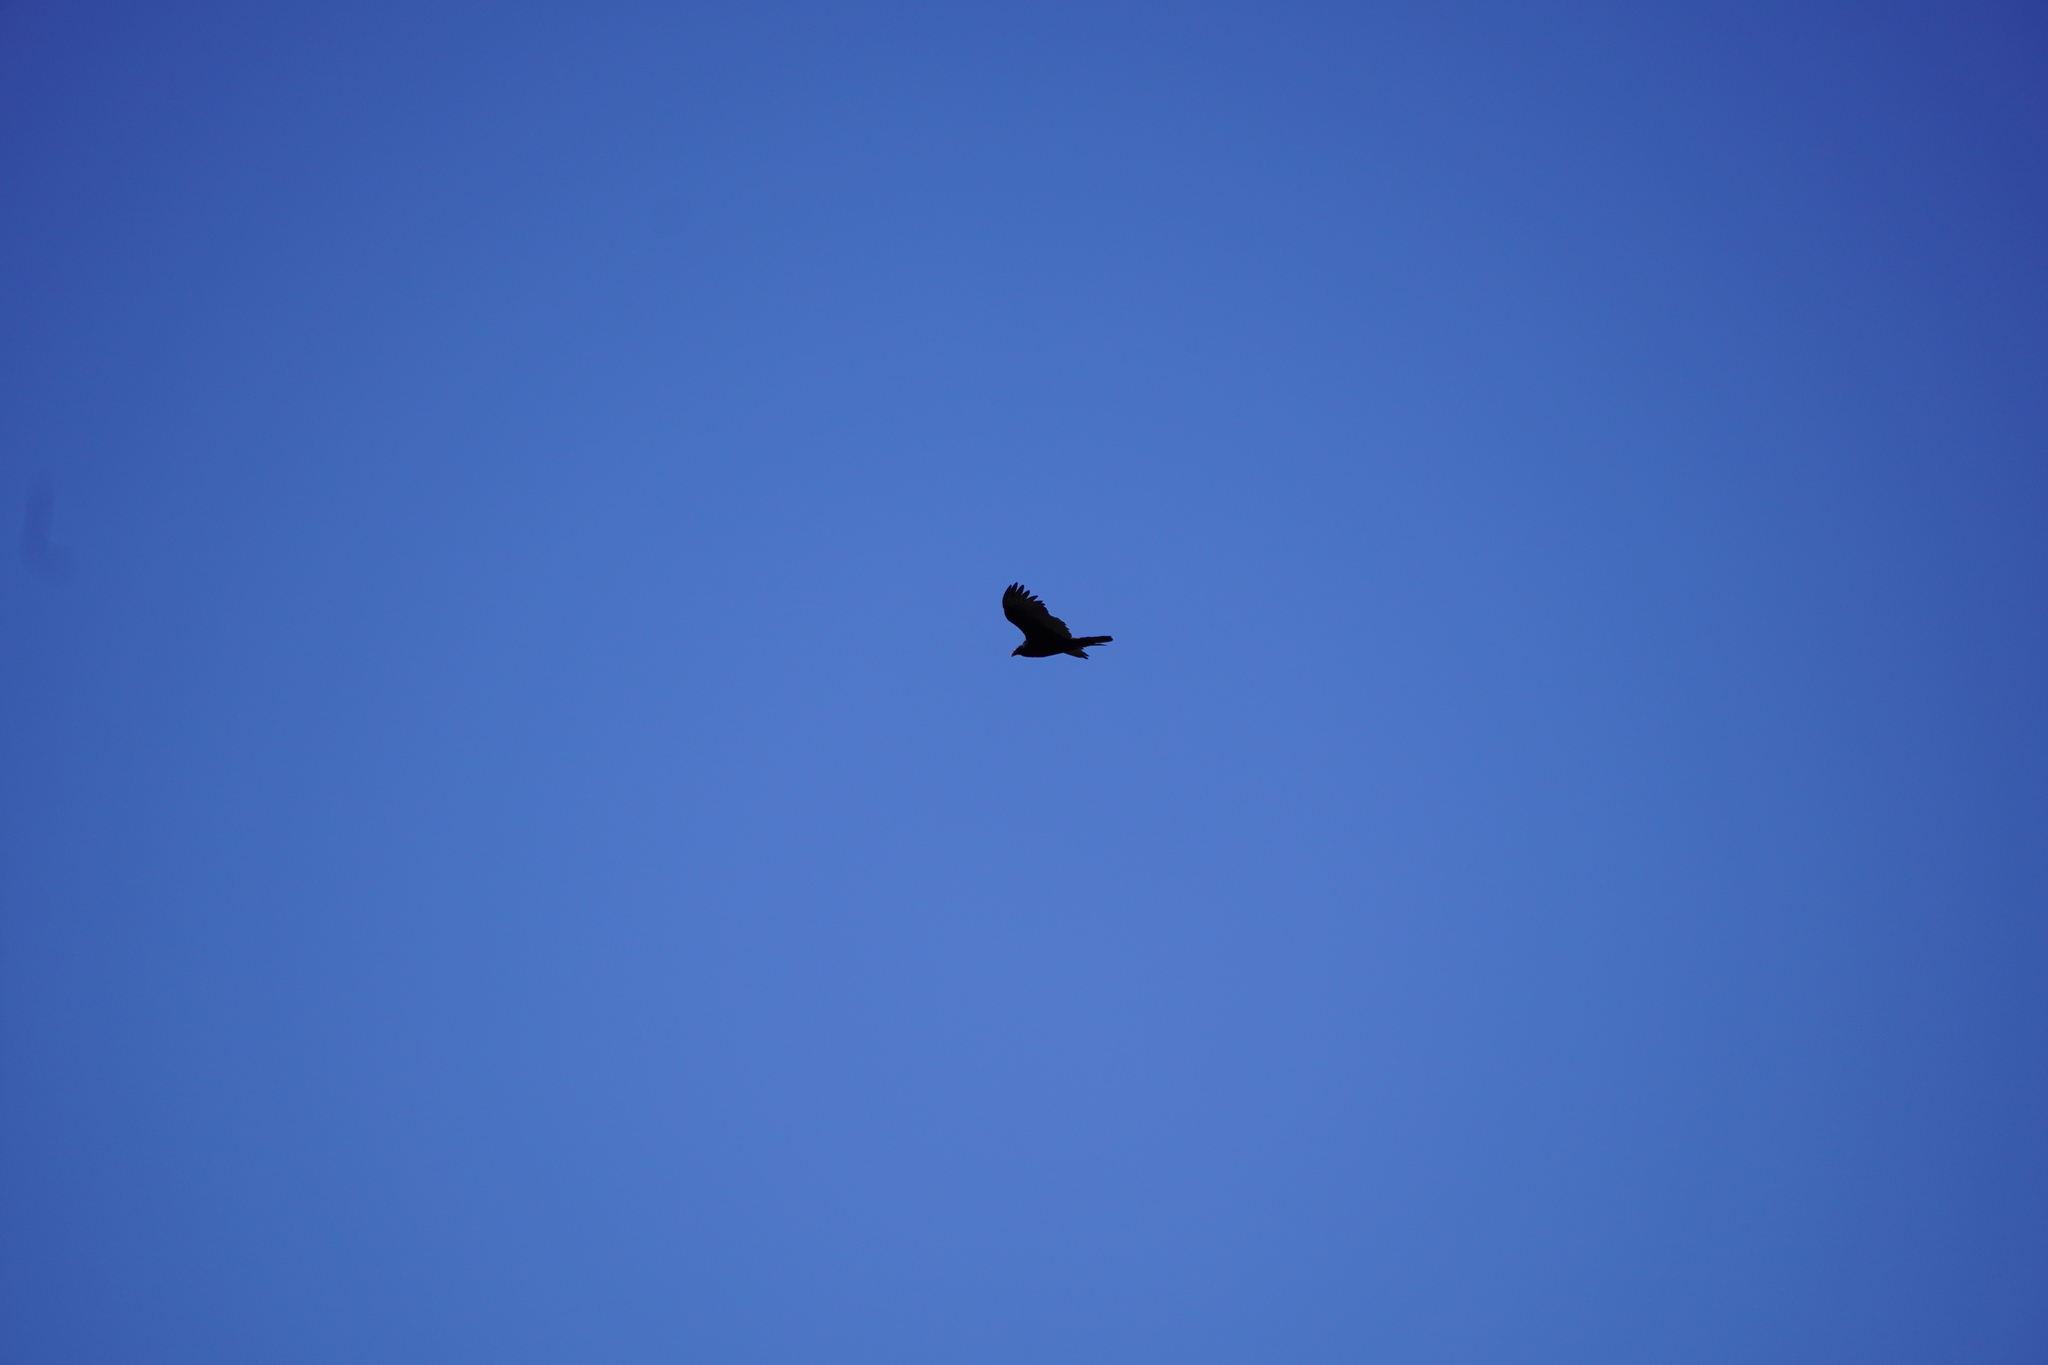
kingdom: Animalia
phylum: Chordata
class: Aves
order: Accipitriformes
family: Cathartidae
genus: Cathartes
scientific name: Cathartes aura
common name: Turkey vulture
